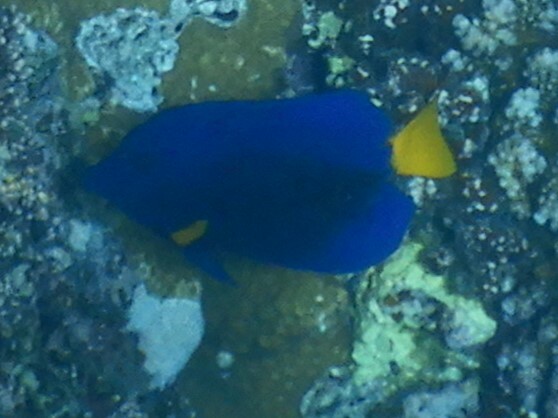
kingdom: Animalia
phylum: Chordata
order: Perciformes
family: Acanthuridae
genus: Zebrasoma
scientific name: Zebrasoma xanthurum
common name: Purple tang
